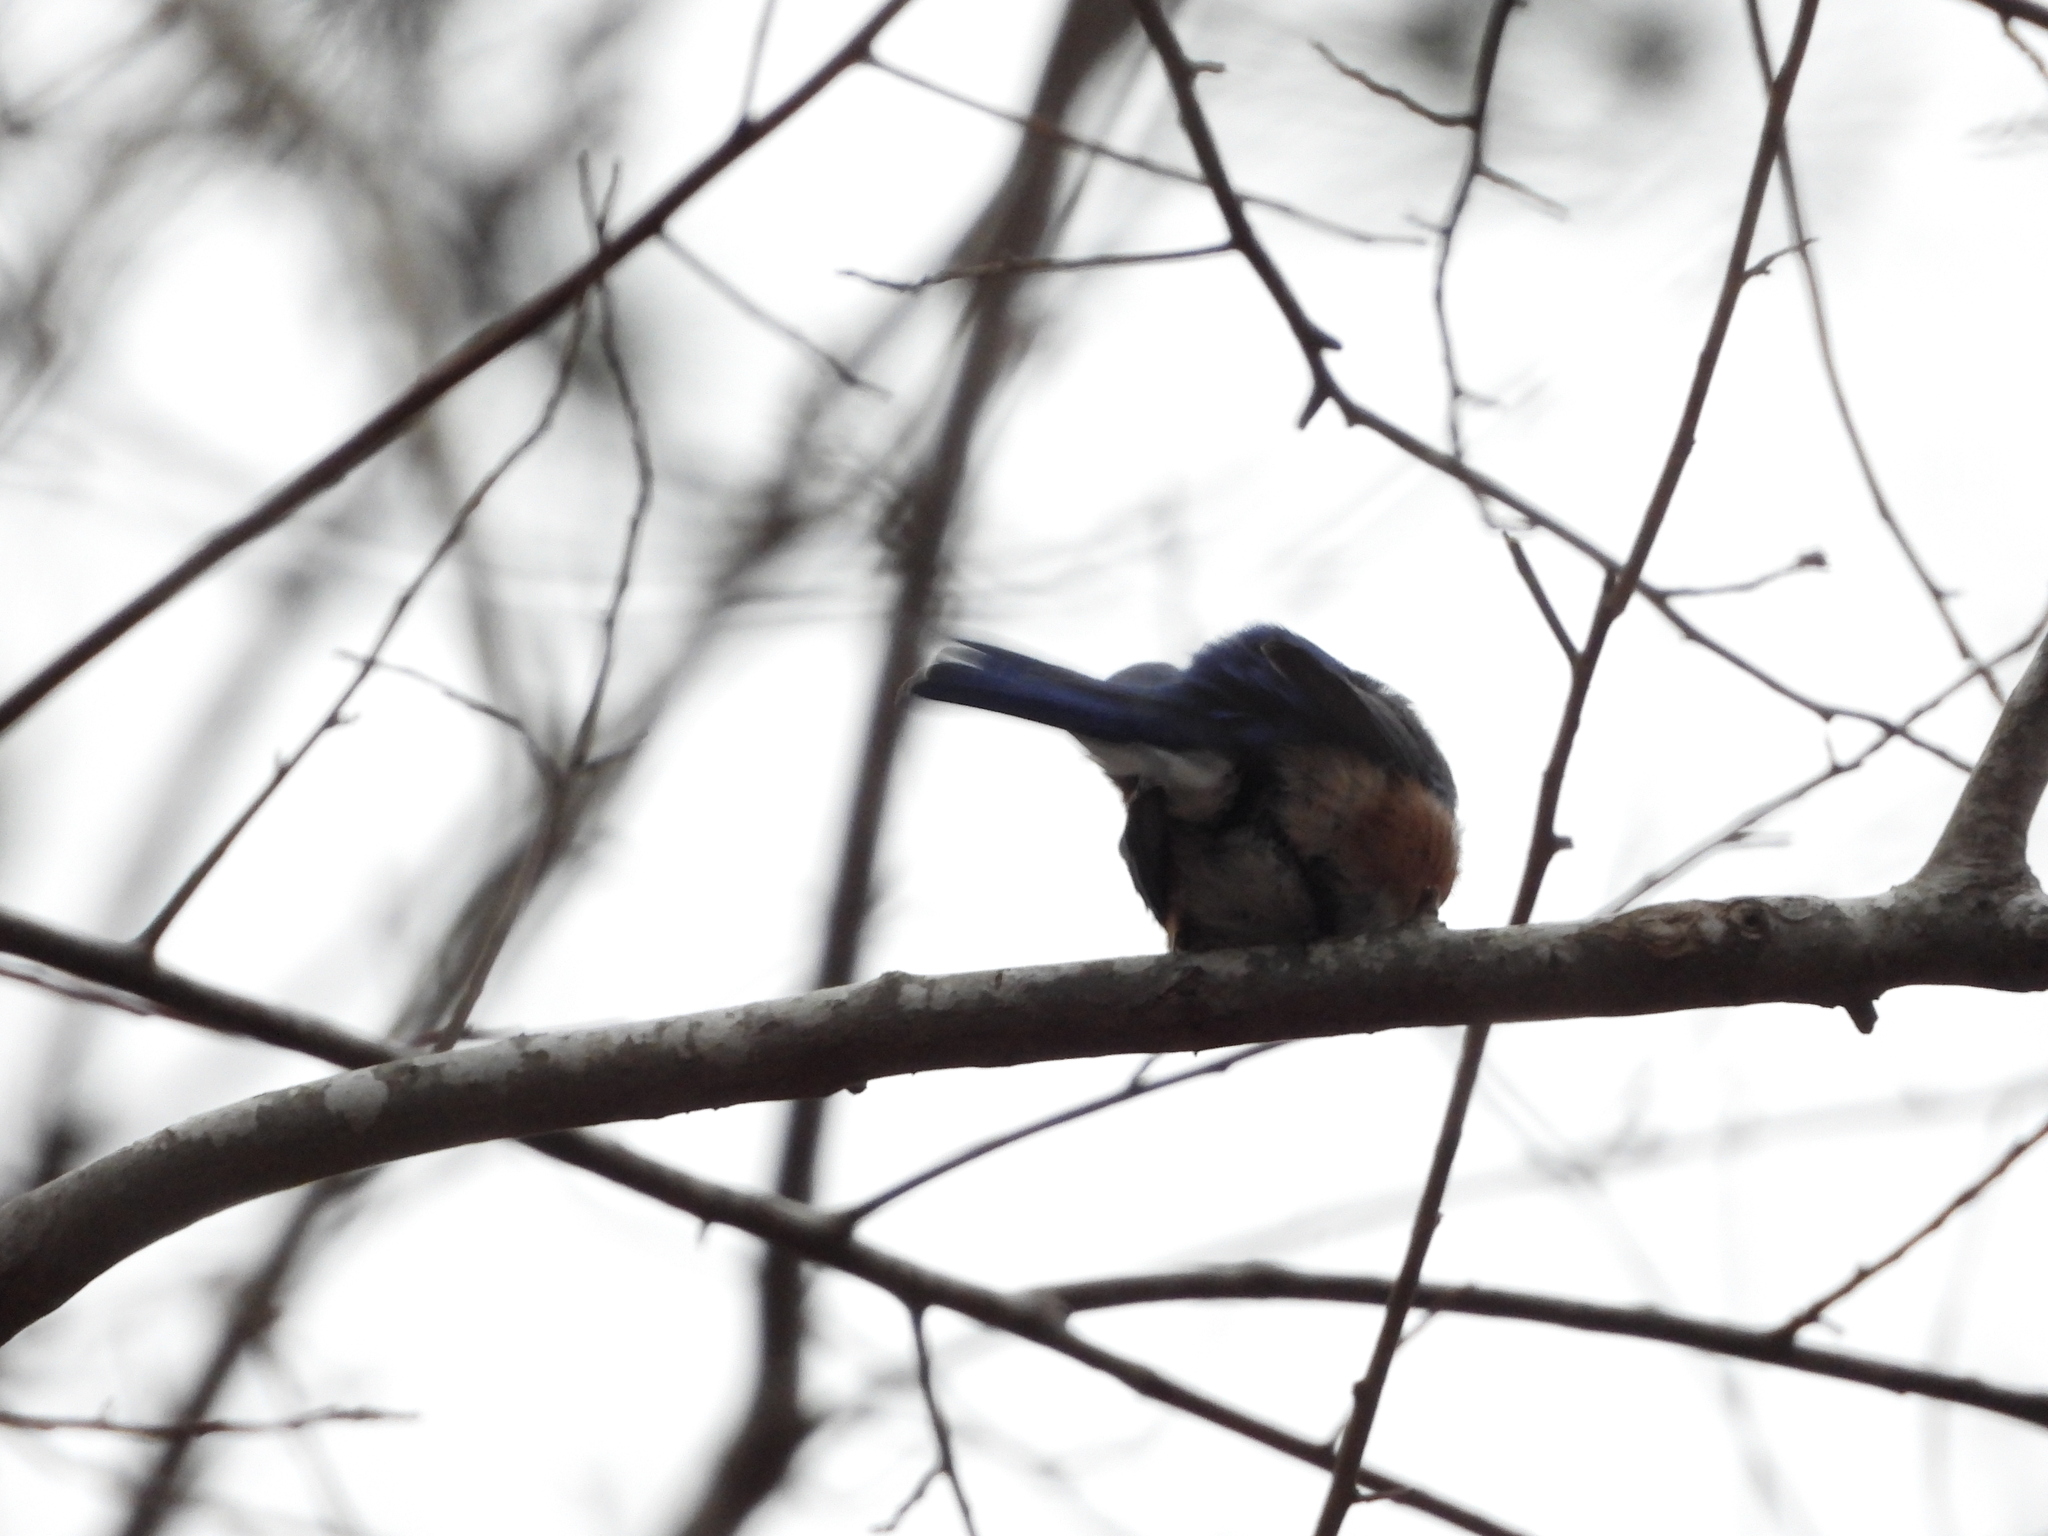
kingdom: Animalia
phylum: Chordata
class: Aves
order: Passeriformes
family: Turdidae
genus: Sialia
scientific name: Sialia sialis
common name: Eastern bluebird
